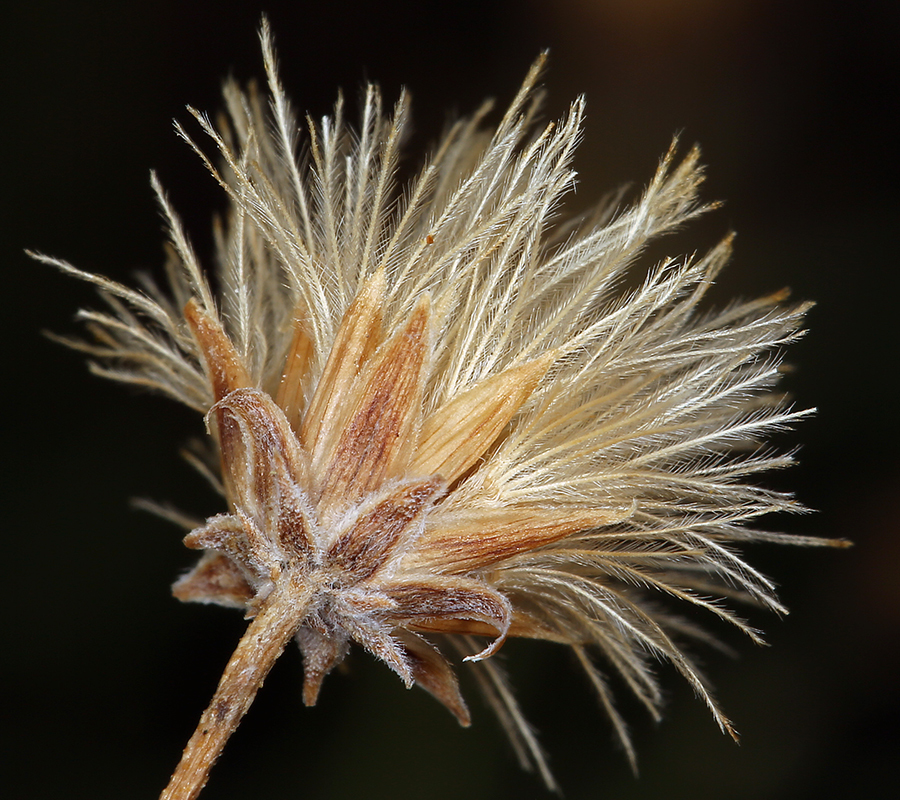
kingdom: Plantae
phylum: Tracheophyta
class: Magnoliopsida
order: Asterales
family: Asteraceae
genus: Bebbia
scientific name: Bebbia juncea
